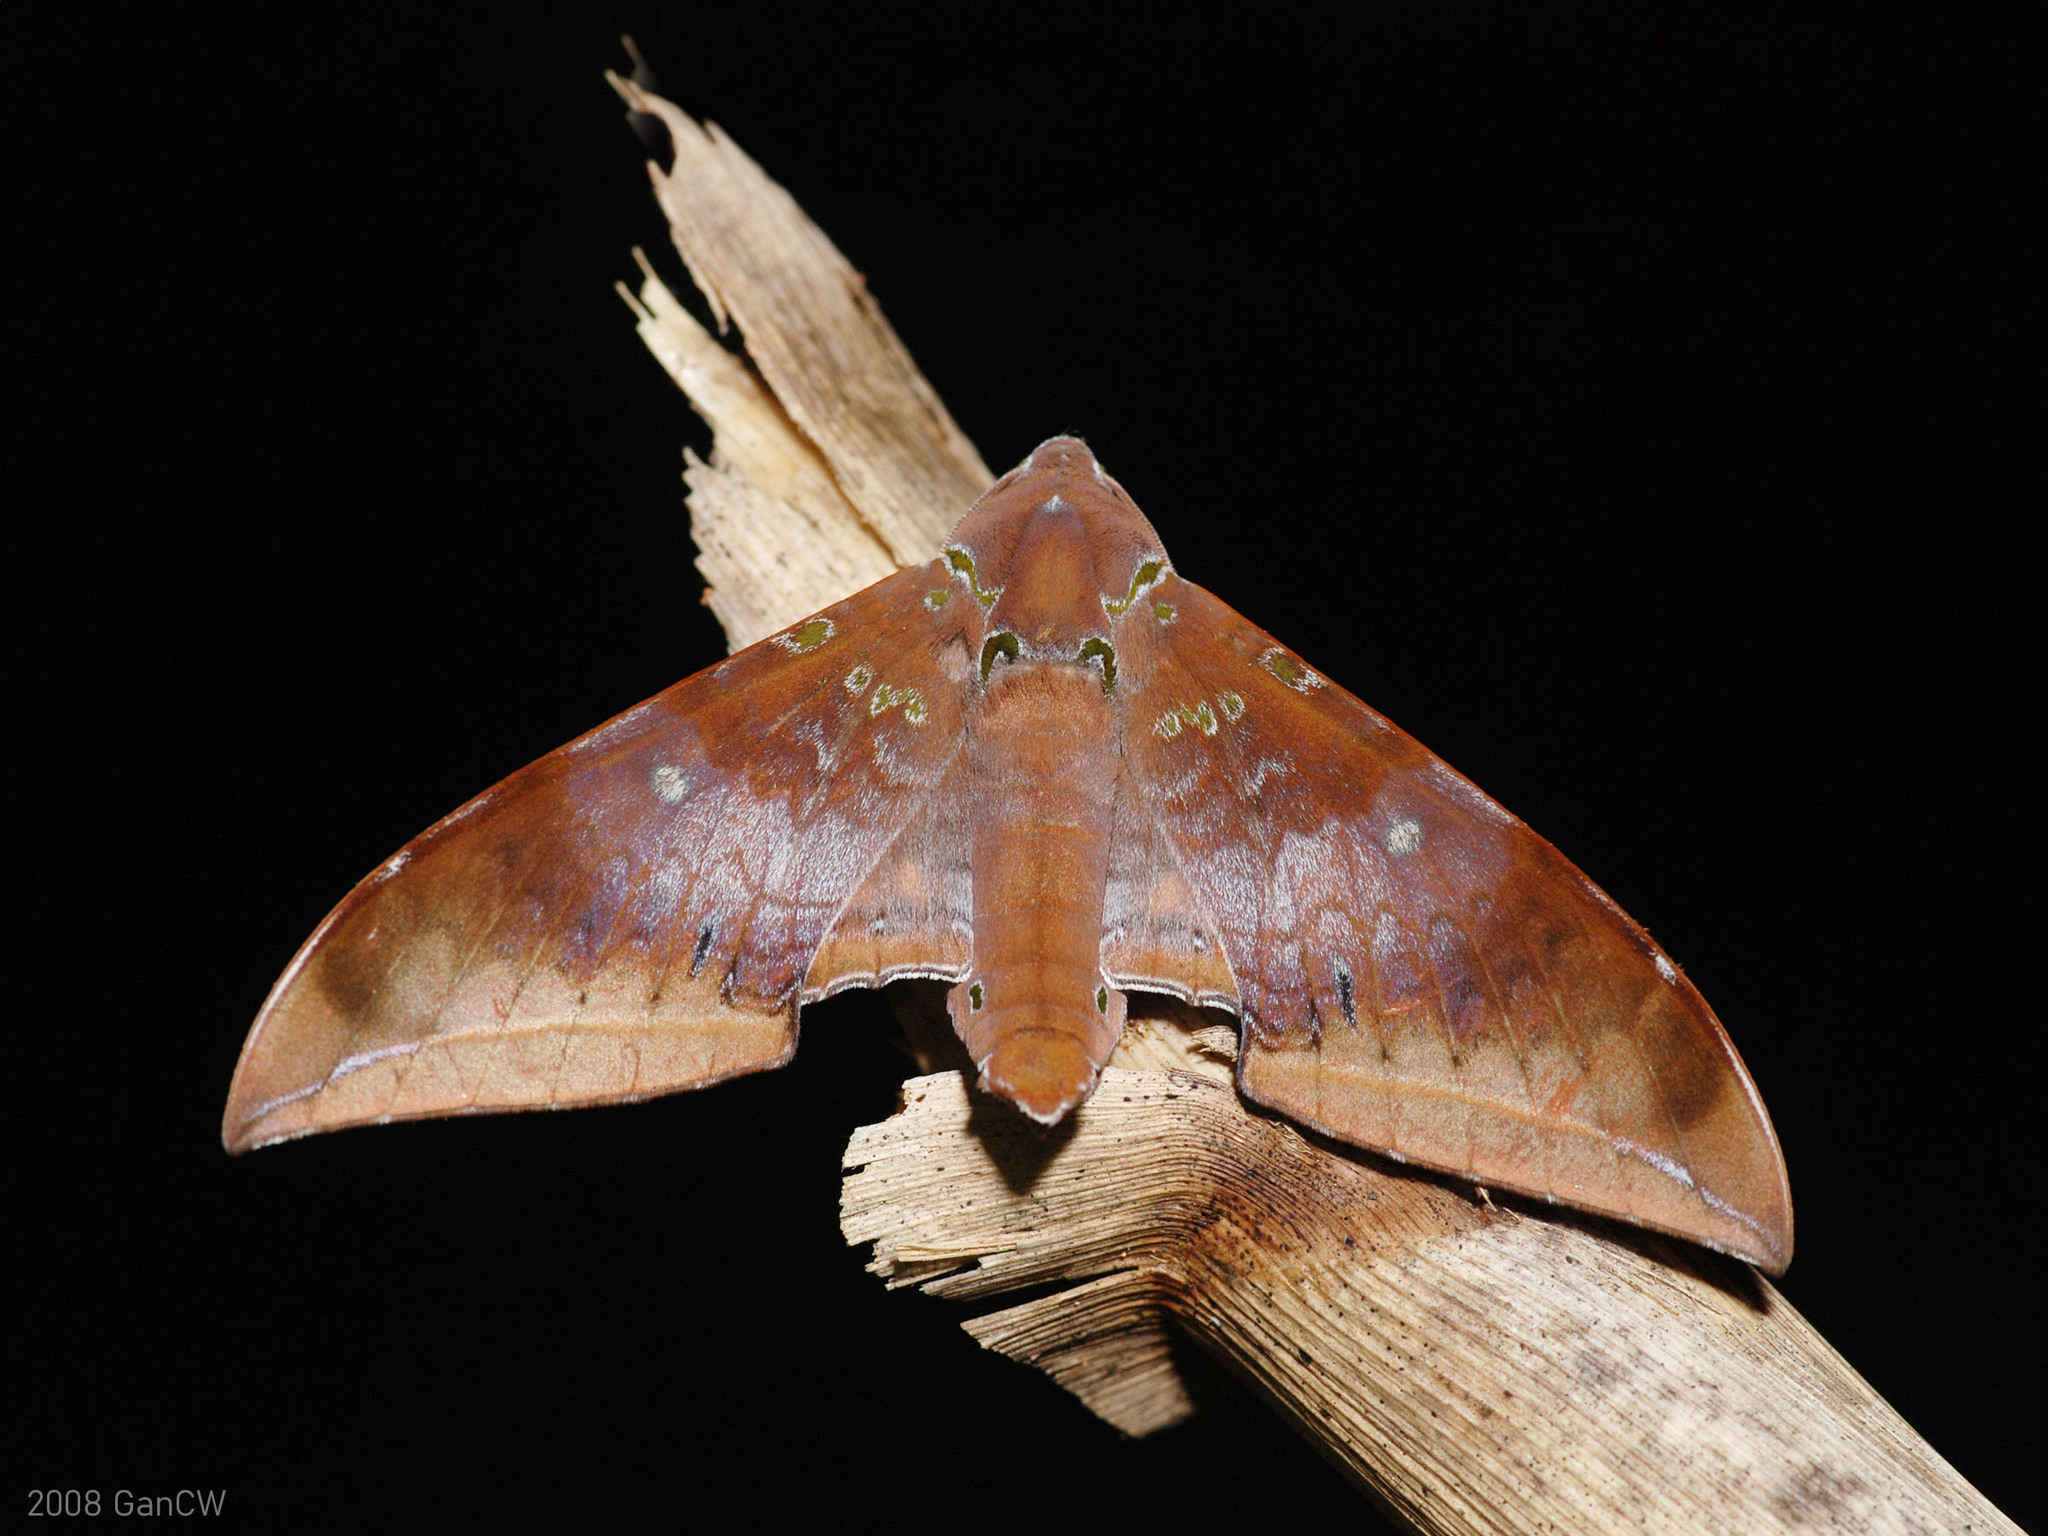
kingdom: Animalia
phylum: Arthropoda
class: Insecta
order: Lepidoptera
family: Sphingidae
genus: Ambulyx
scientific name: Ambulyx moorei
